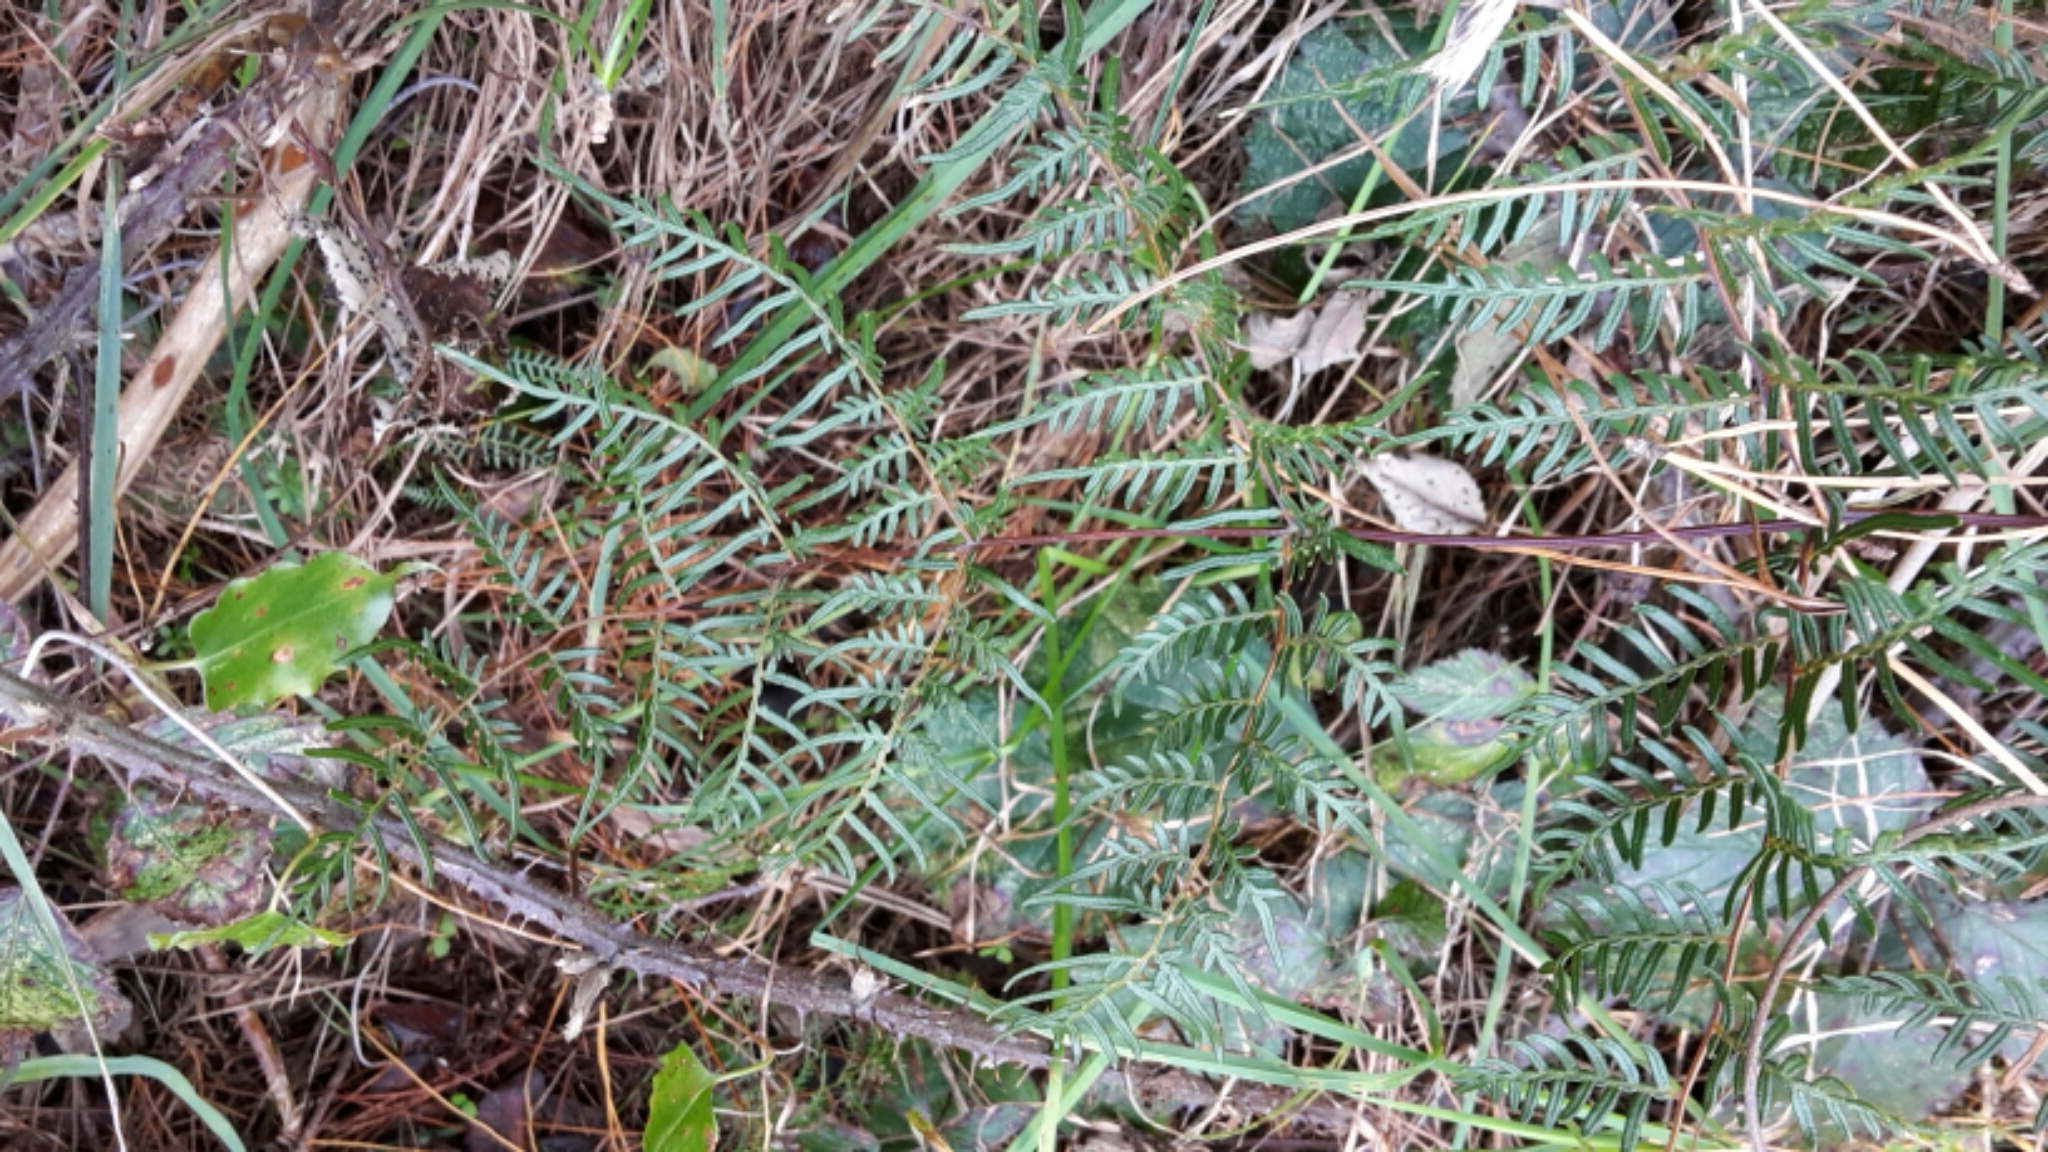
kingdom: Plantae
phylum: Tracheophyta
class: Polypodiopsida
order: Polypodiales
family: Dennstaedtiaceae
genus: Pteridium
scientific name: Pteridium esculentum
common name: Bracken fern
